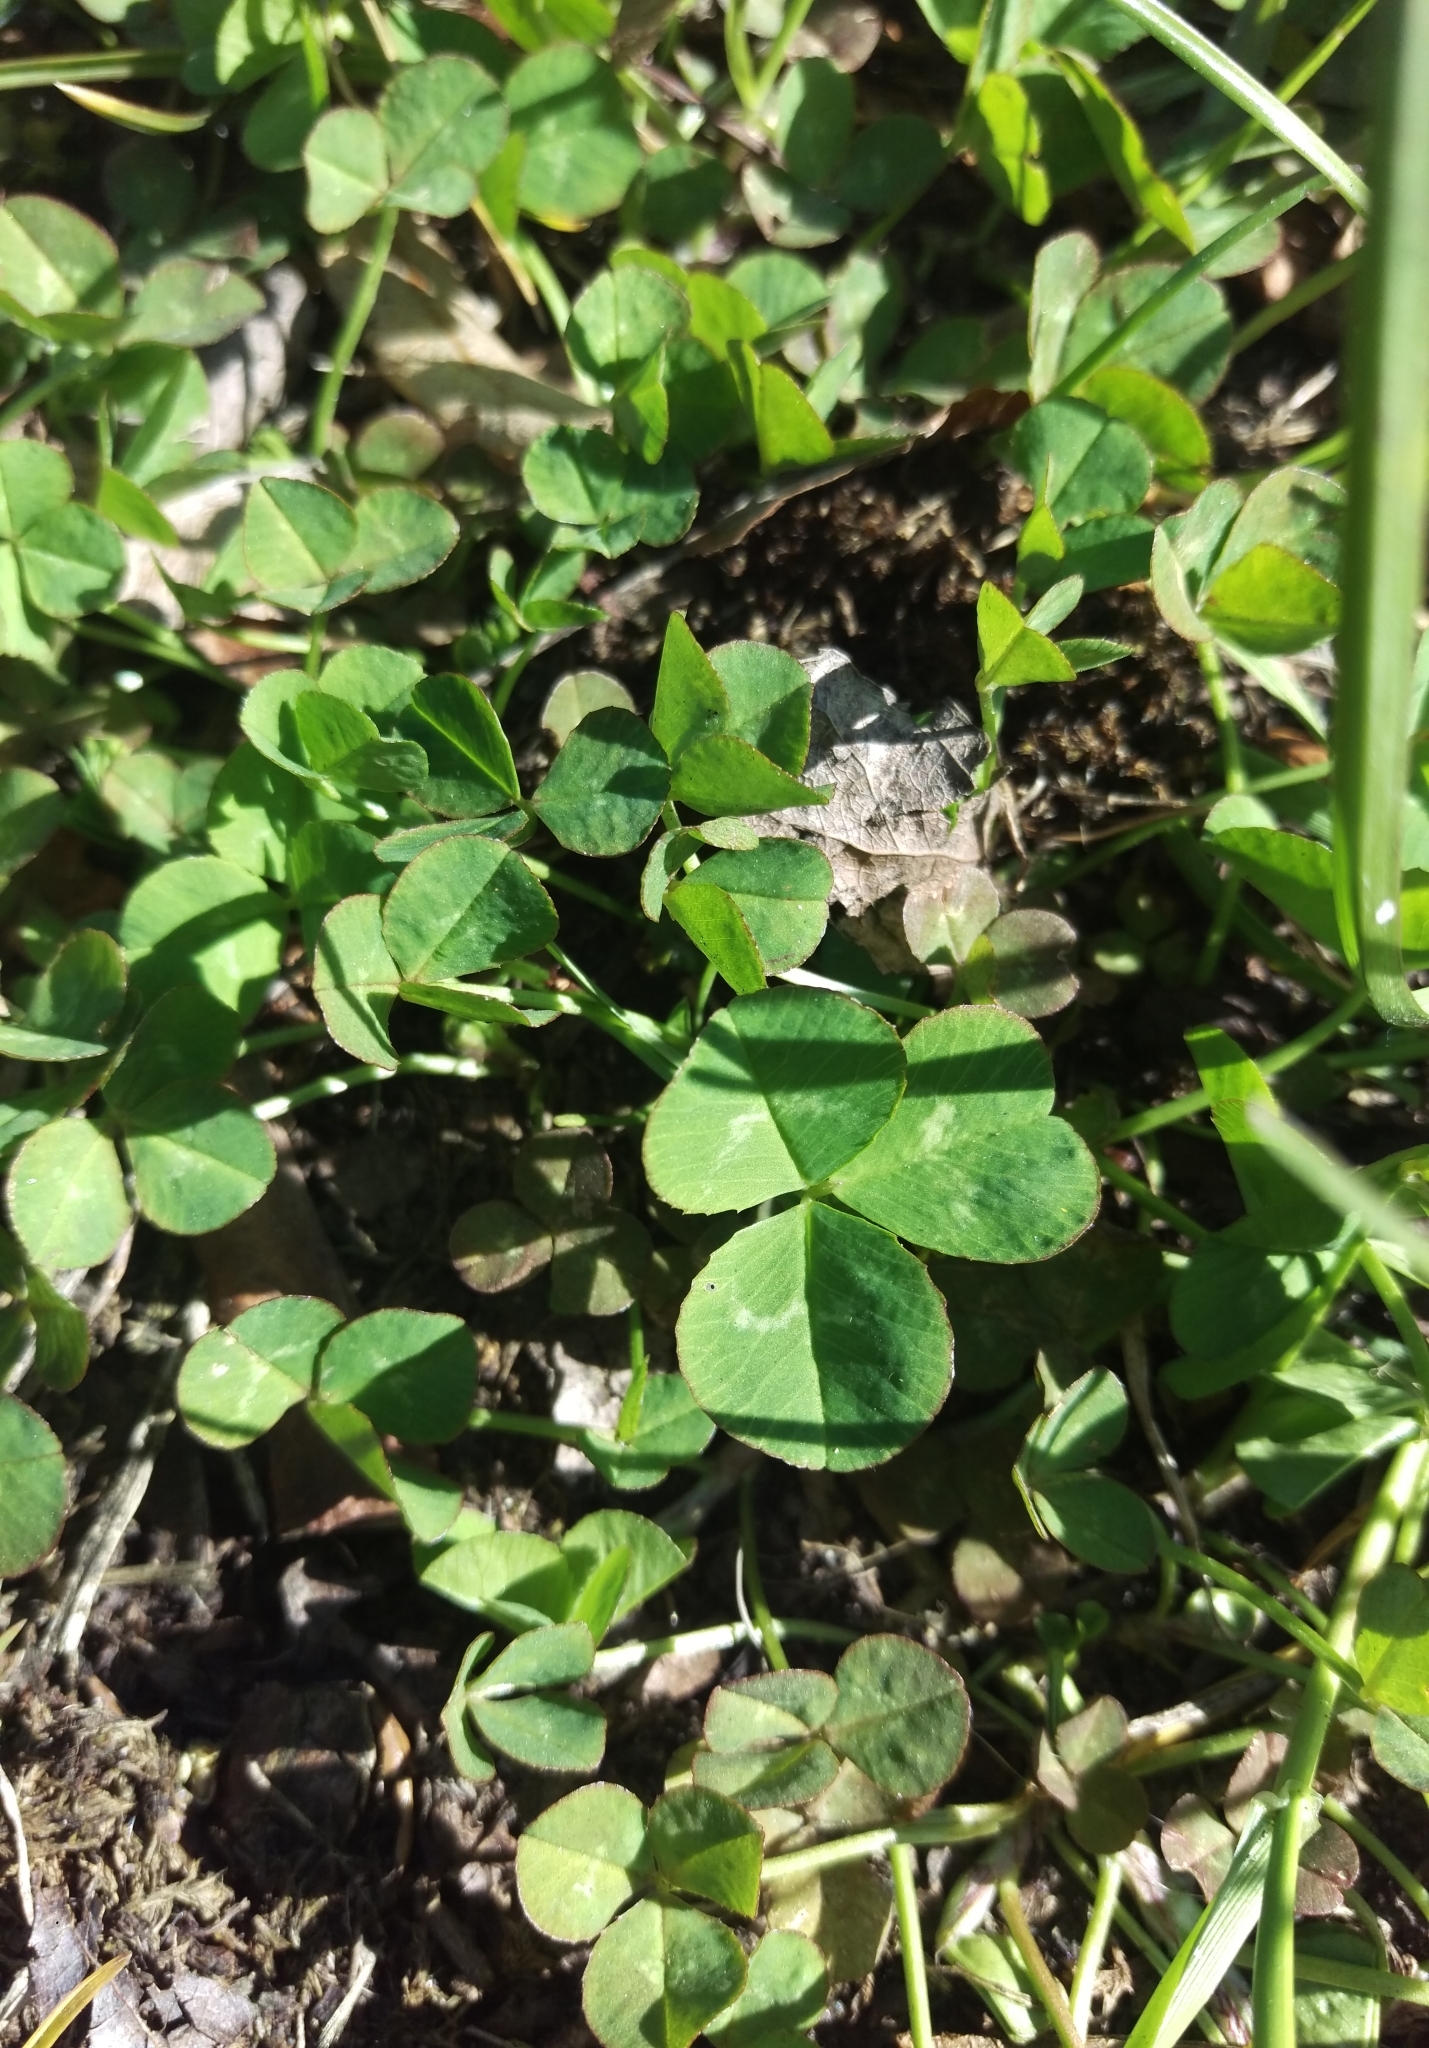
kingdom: Plantae
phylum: Tracheophyta
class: Magnoliopsida
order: Fabales
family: Fabaceae
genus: Trifolium
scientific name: Trifolium repens
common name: White clover
